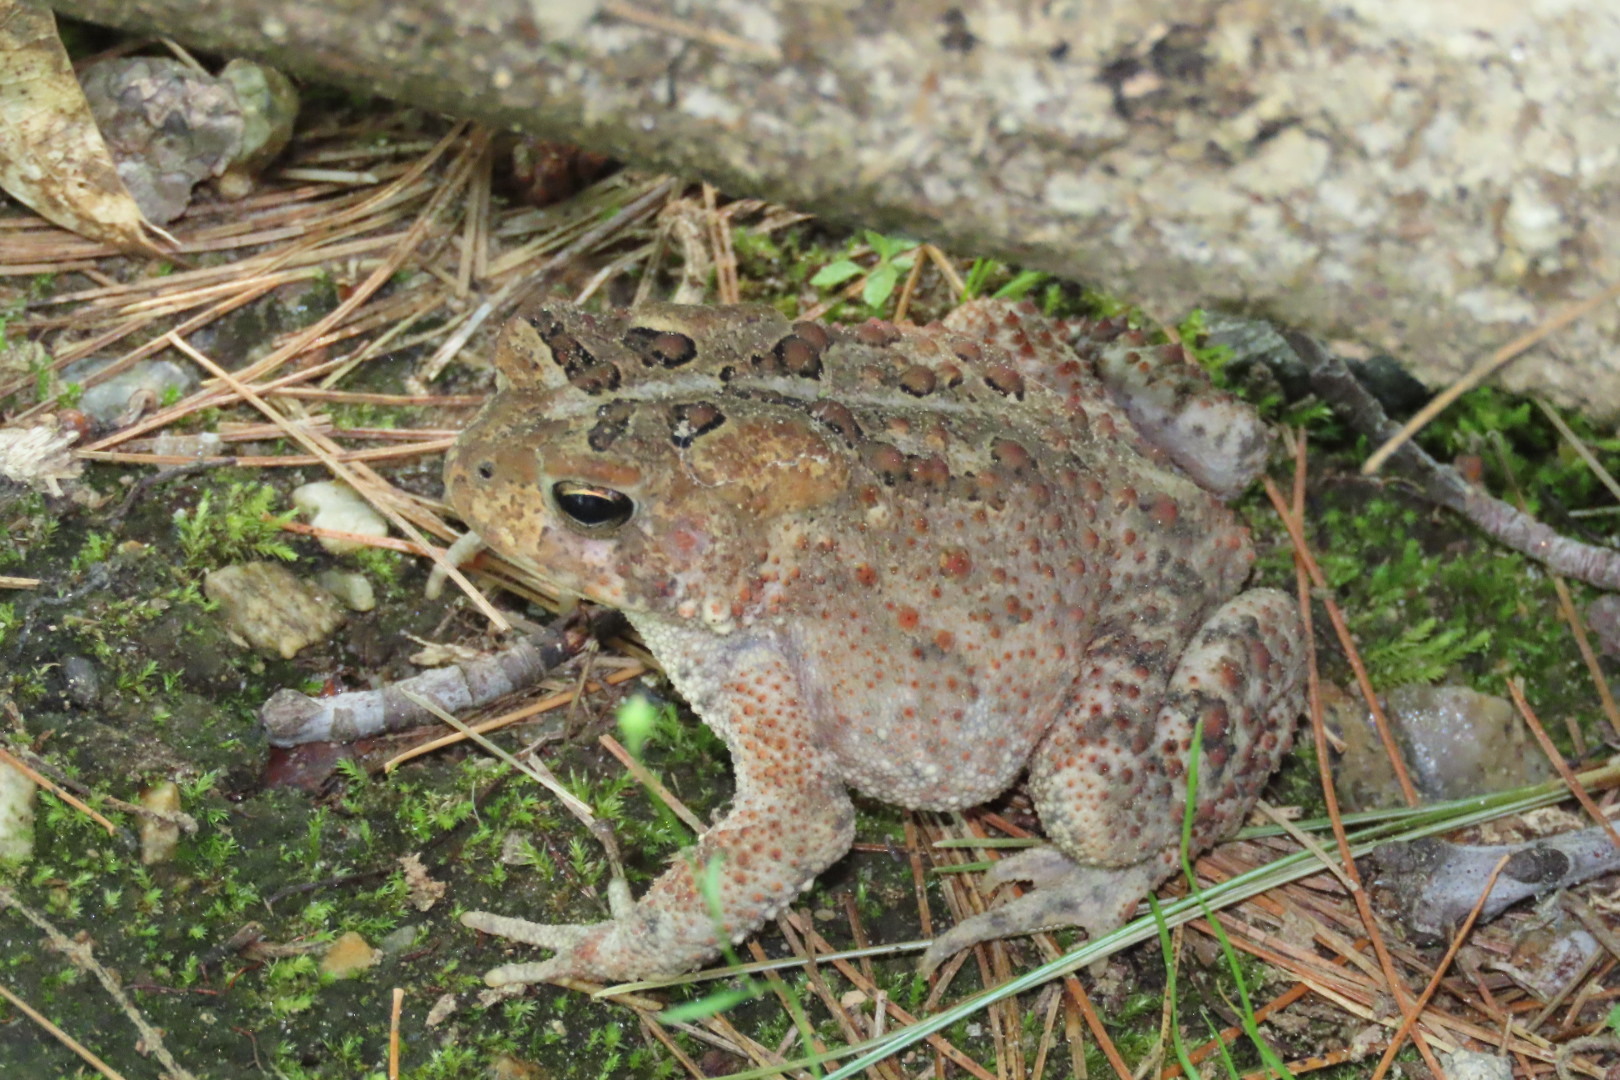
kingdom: Animalia
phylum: Chordata
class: Amphibia
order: Anura
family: Bufonidae
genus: Anaxyrus
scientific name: Anaxyrus americanus
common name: American toad
